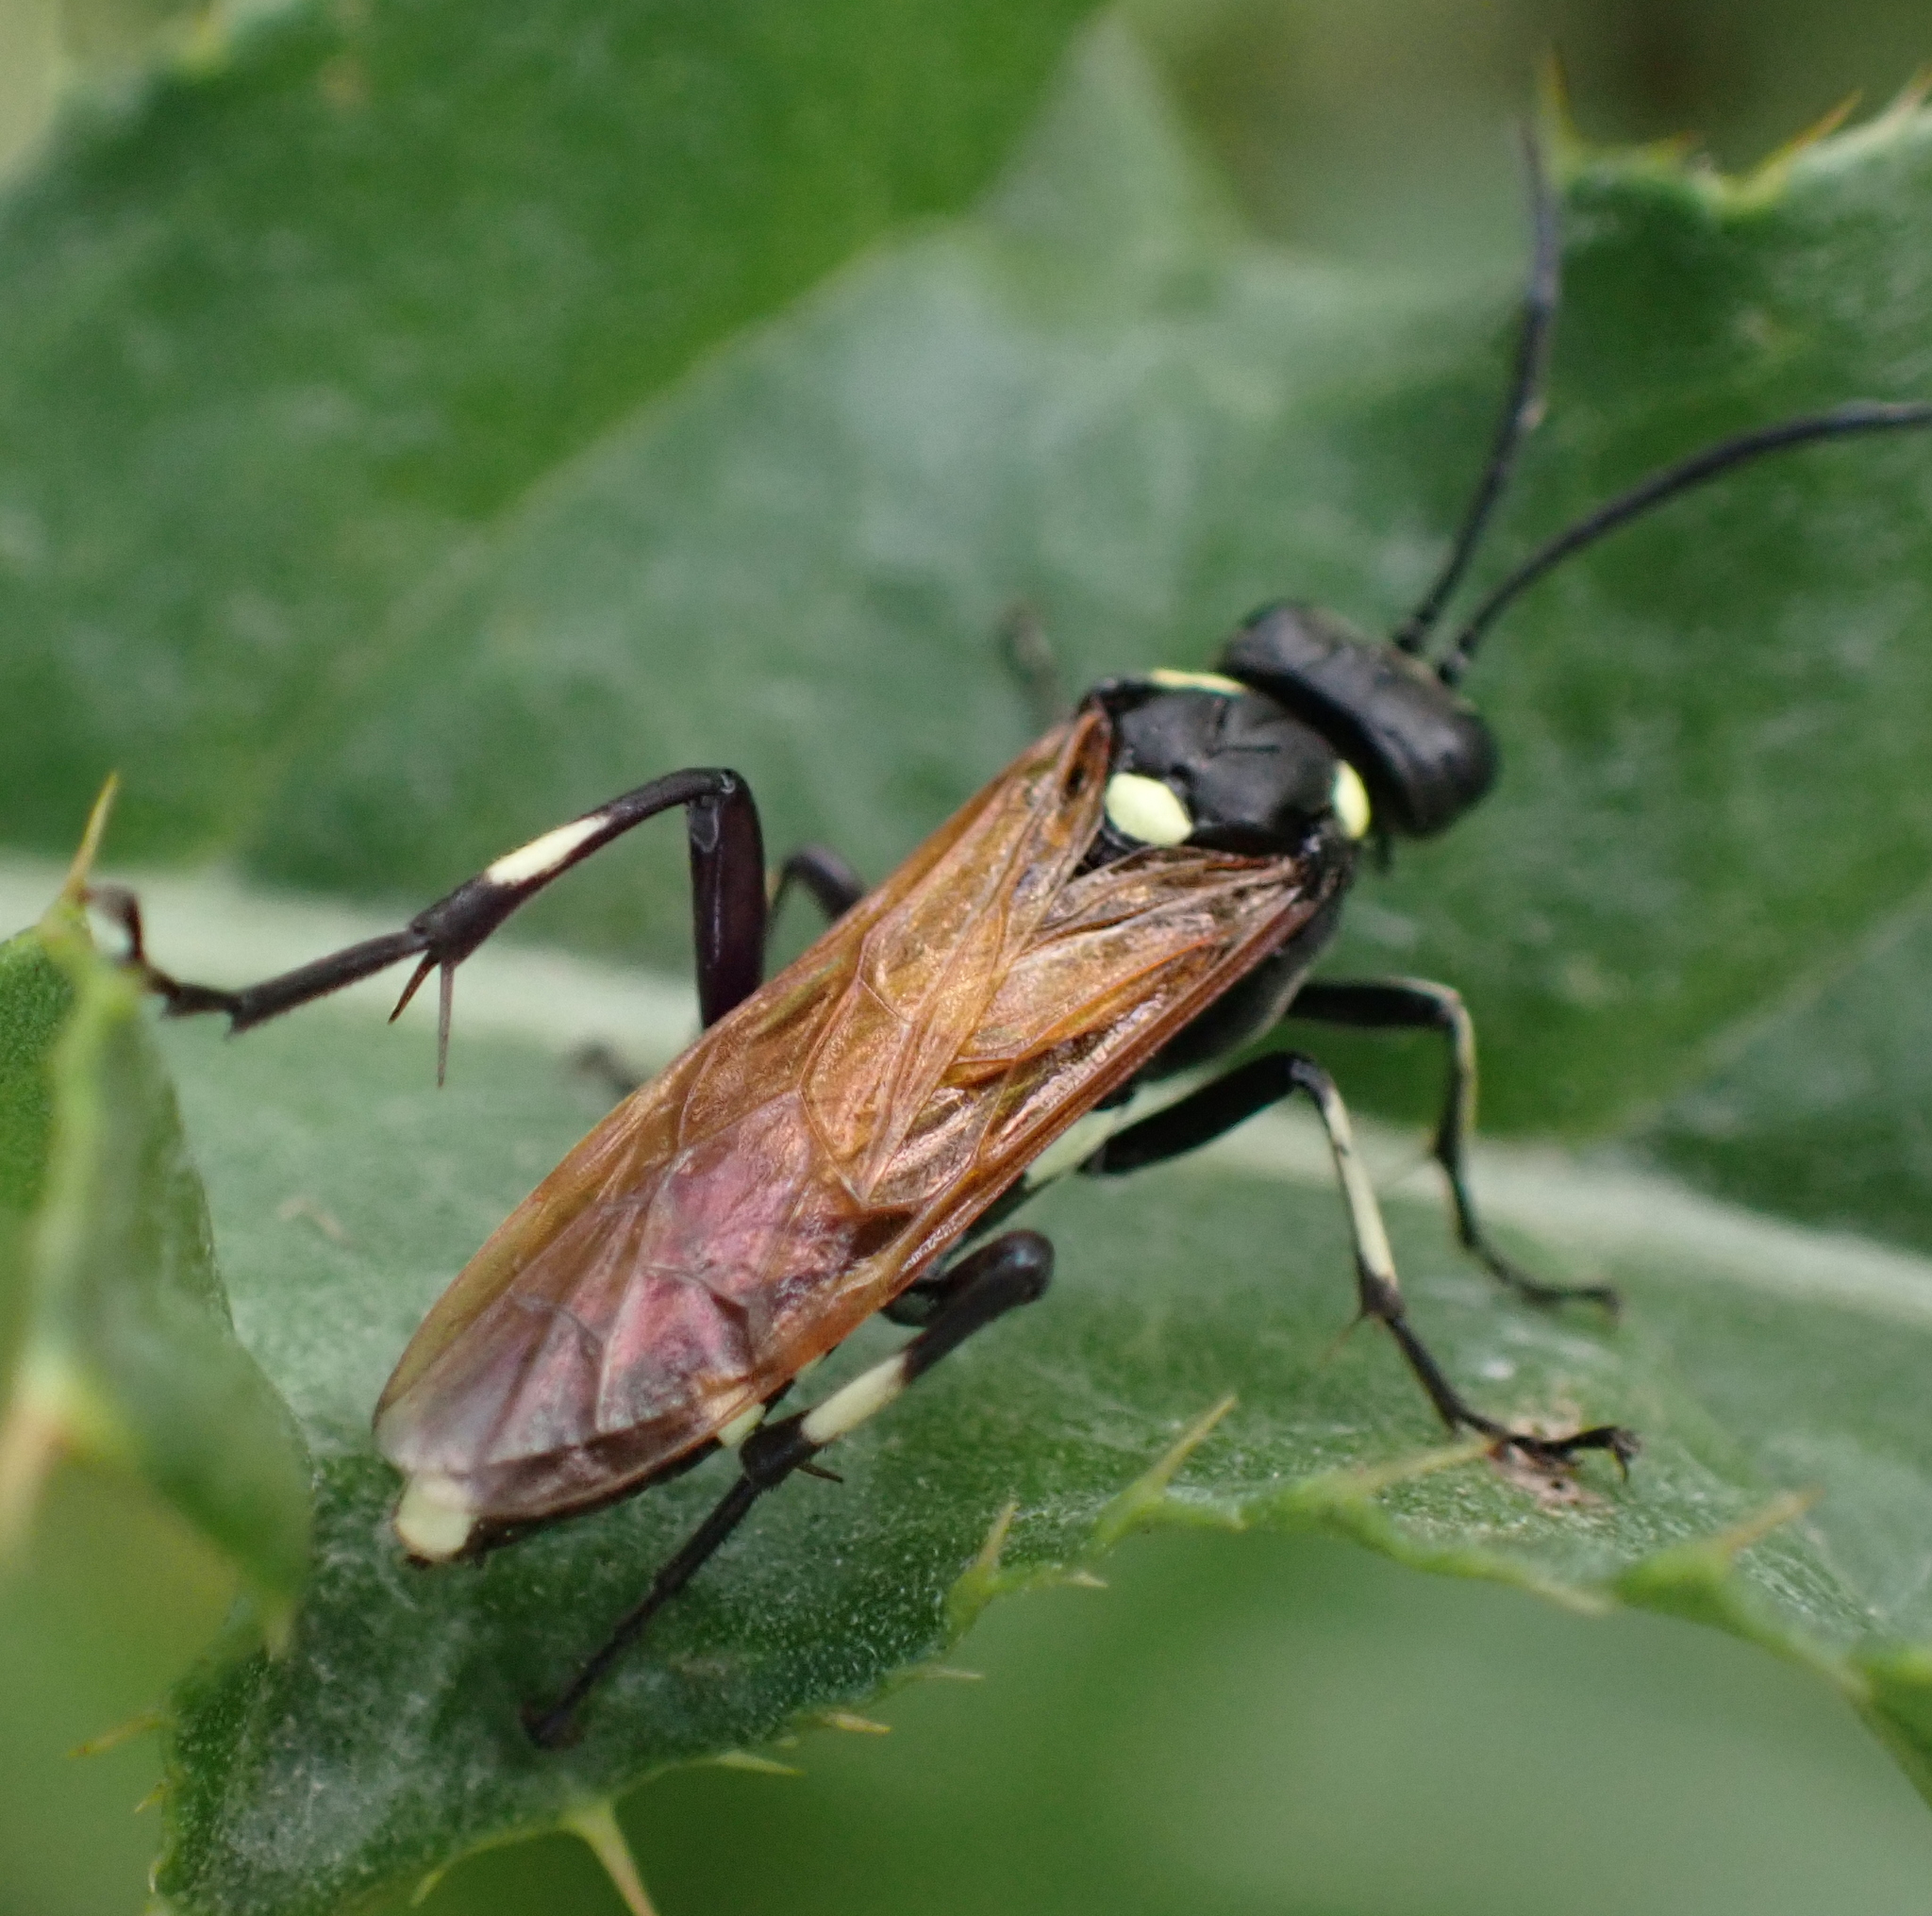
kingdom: Animalia
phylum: Arthropoda
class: Insecta
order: Hymenoptera
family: Tenthredinidae
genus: Macrophya
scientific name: Macrophya duodecimpunctata
